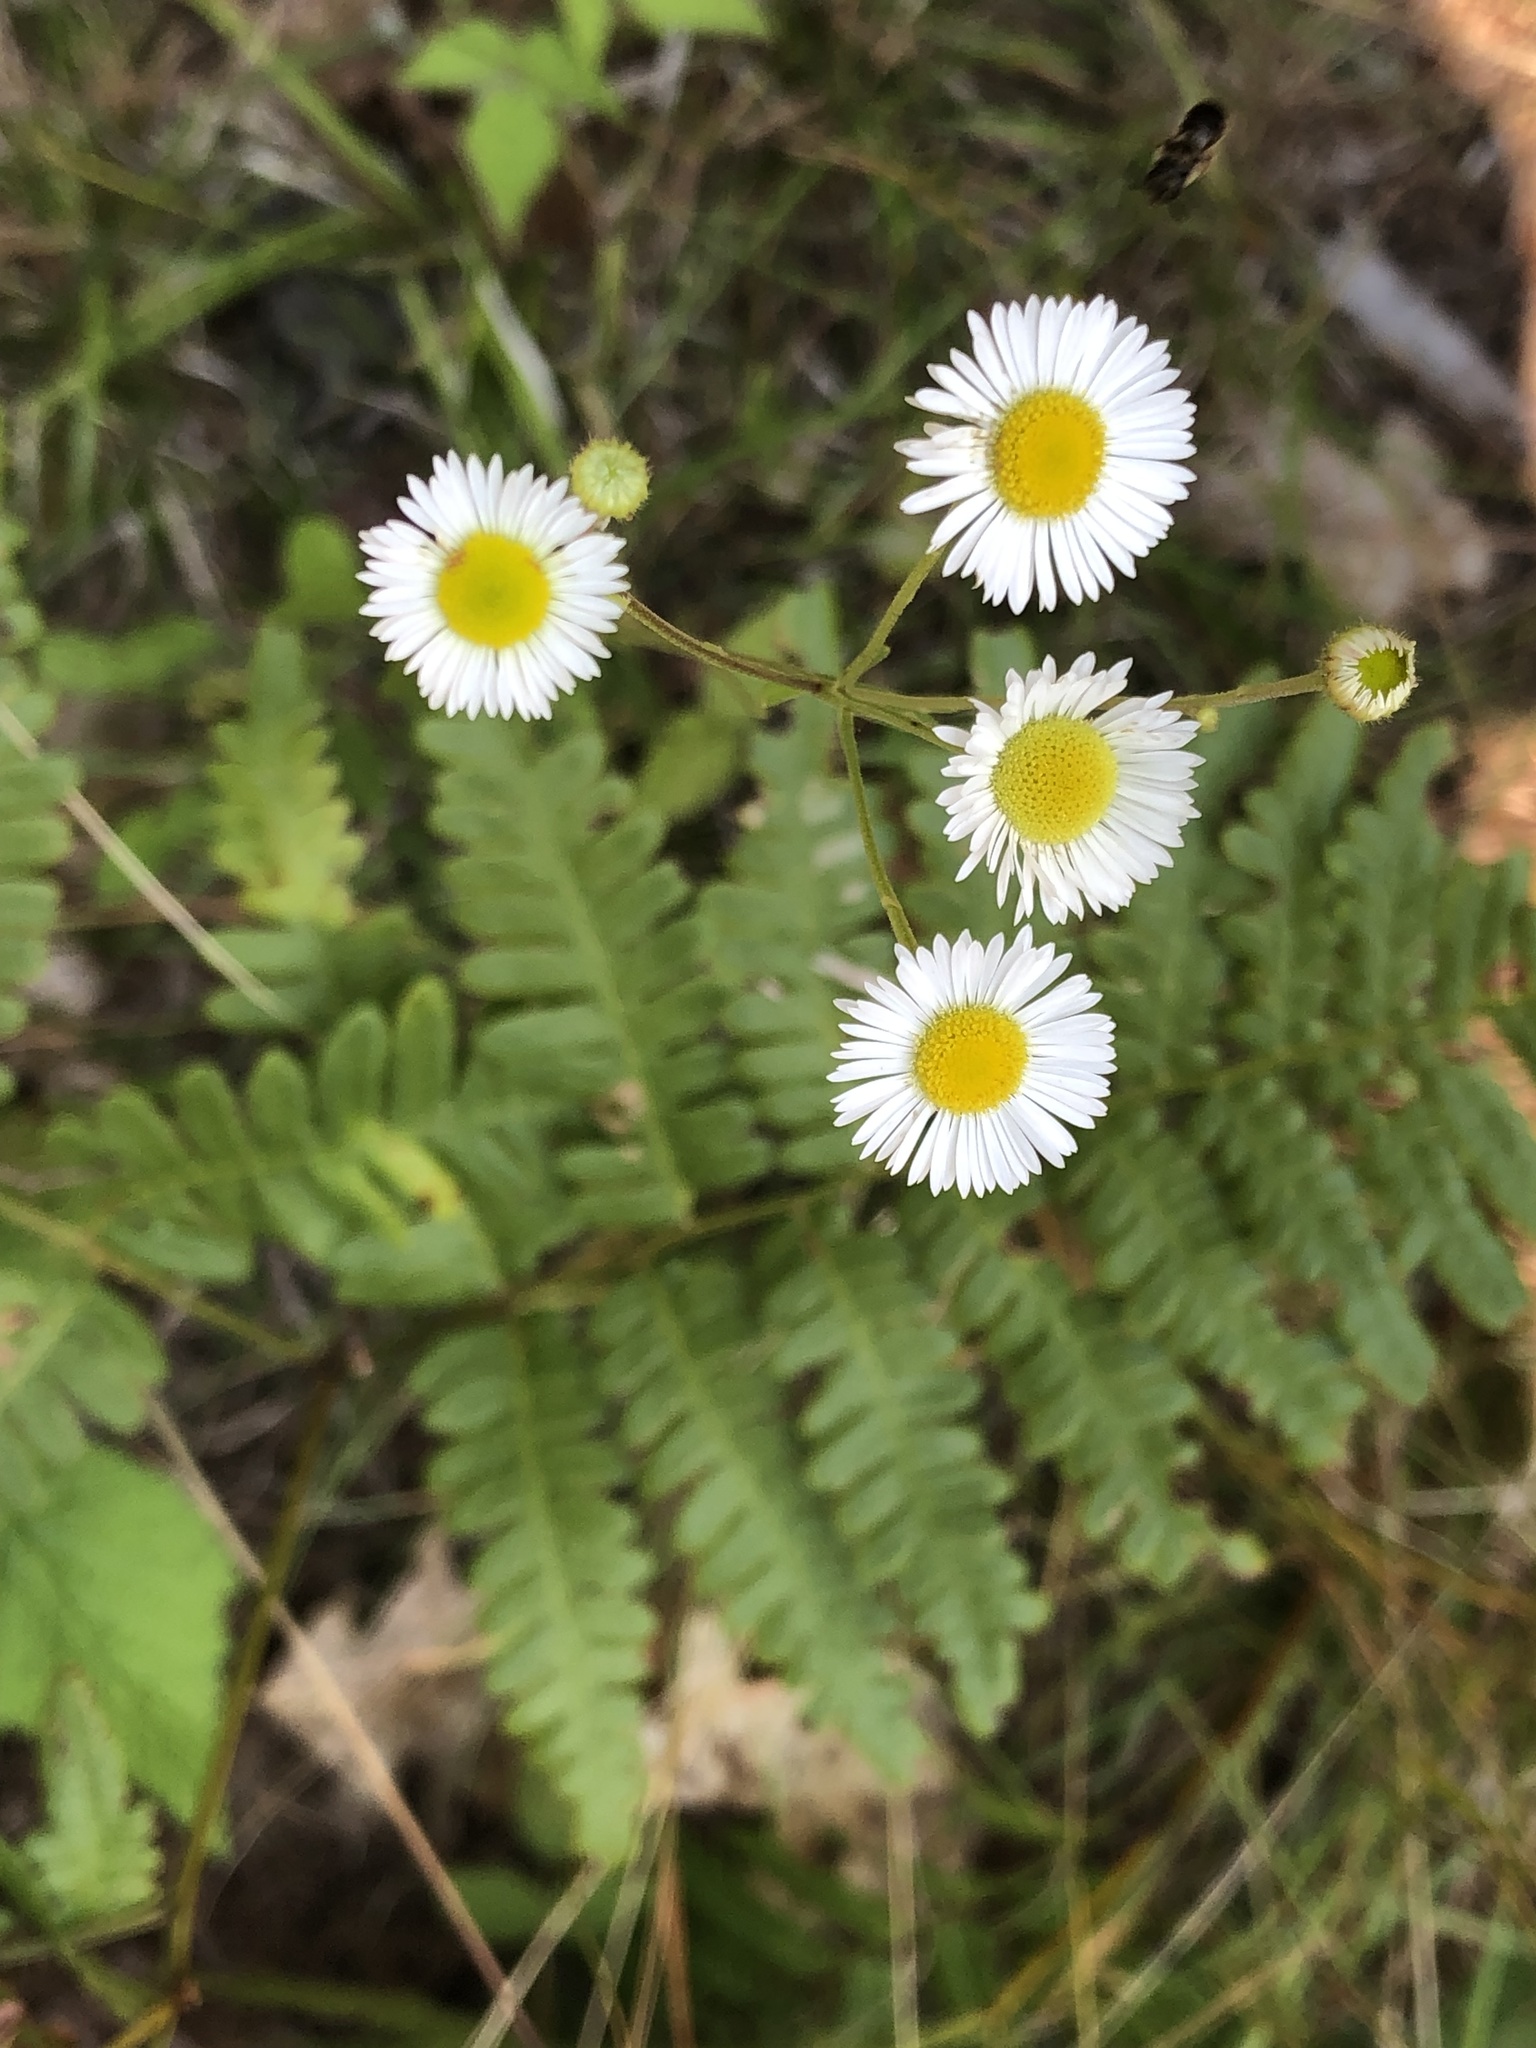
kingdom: Plantae
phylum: Tracheophyta
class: Magnoliopsida
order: Asterales
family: Asteraceae
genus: Erigeron
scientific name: Erigeron strigosus
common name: Common eastern fleabane
